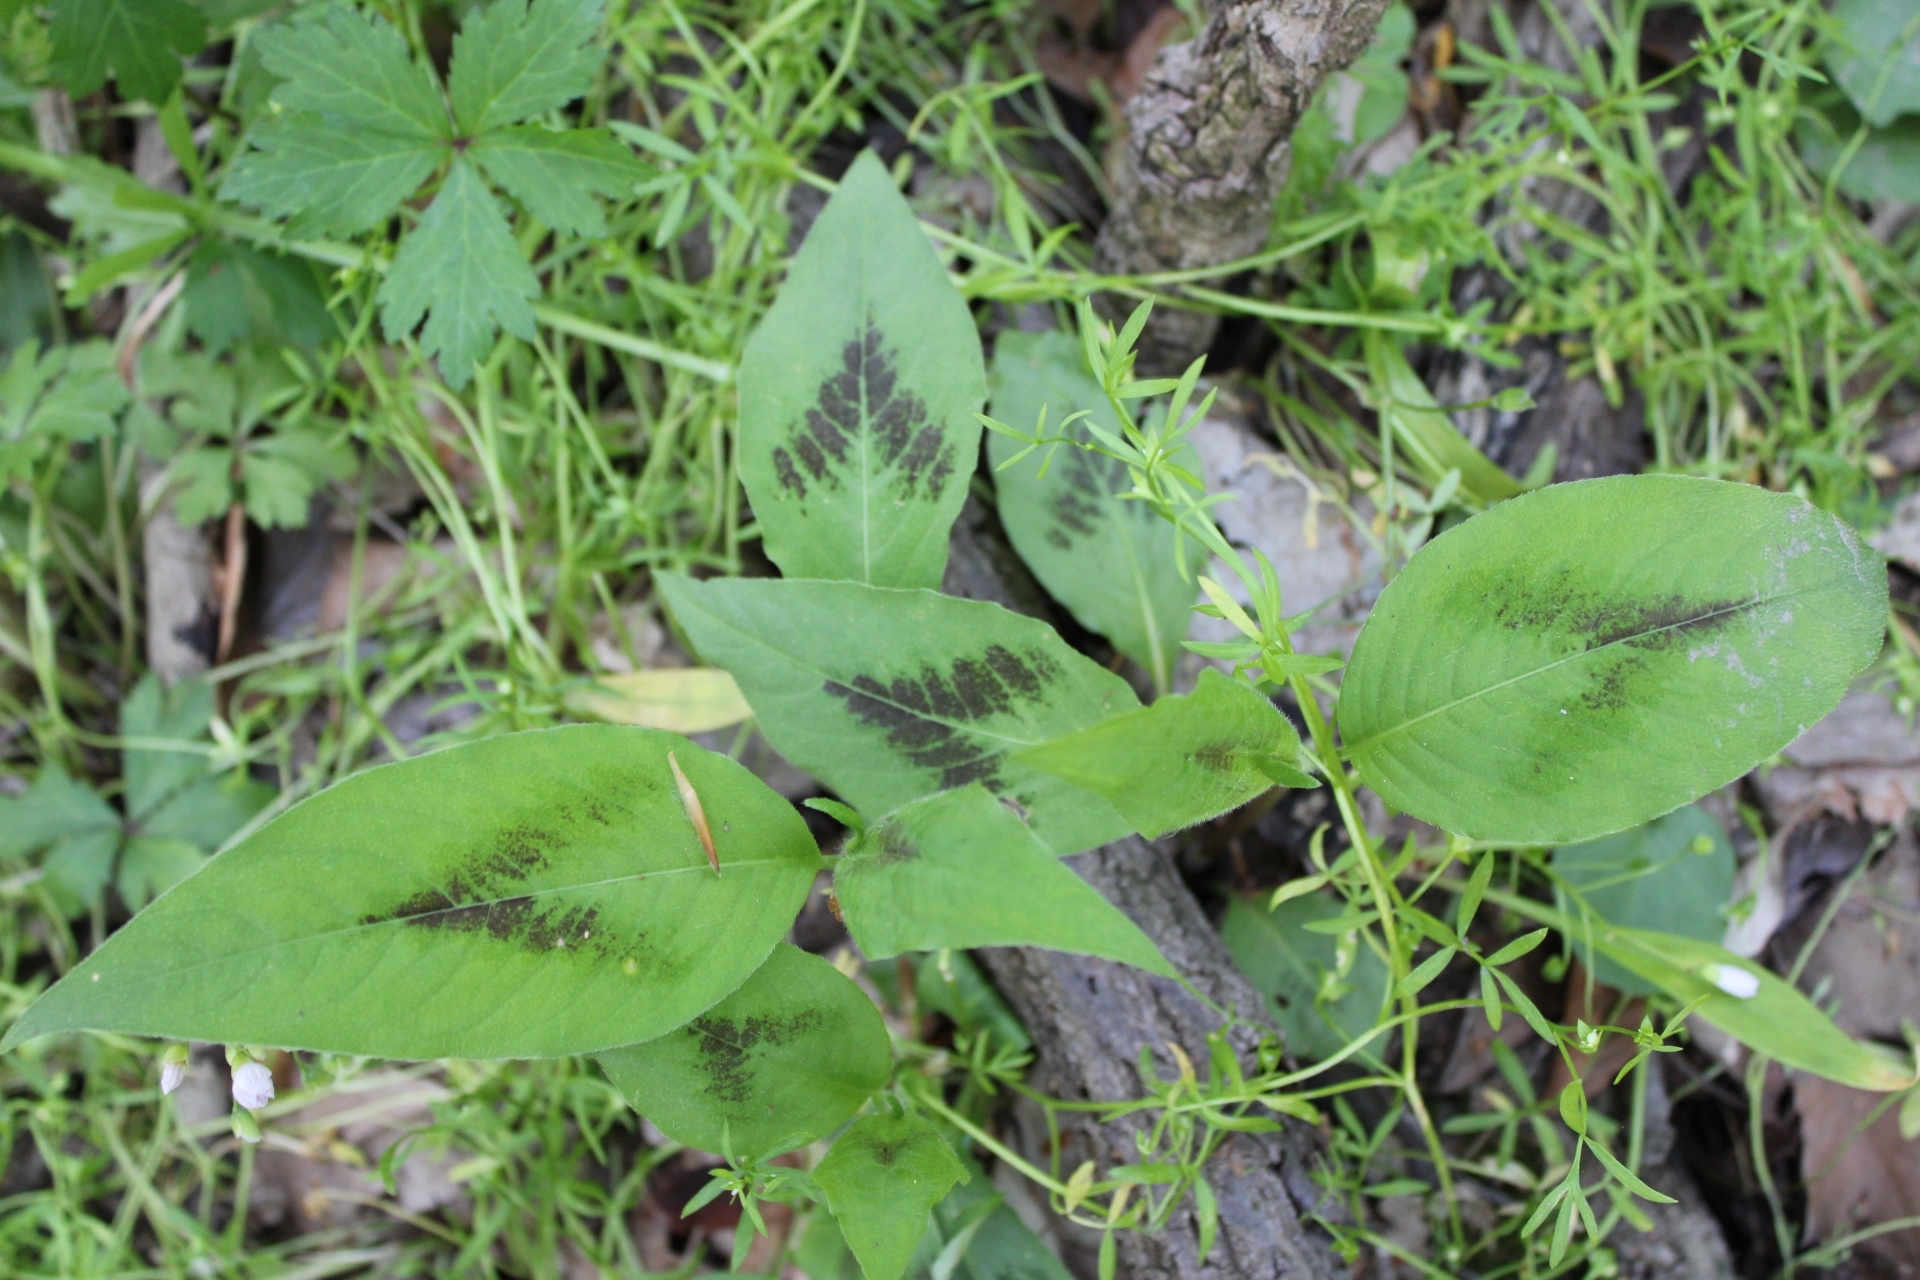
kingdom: Plantae
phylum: Tracheophyta
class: Magnoliopsida
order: Caryophyllales
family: Polygonaceae
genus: Persicaria
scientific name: Persicaria virginiana
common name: Jumpseed
